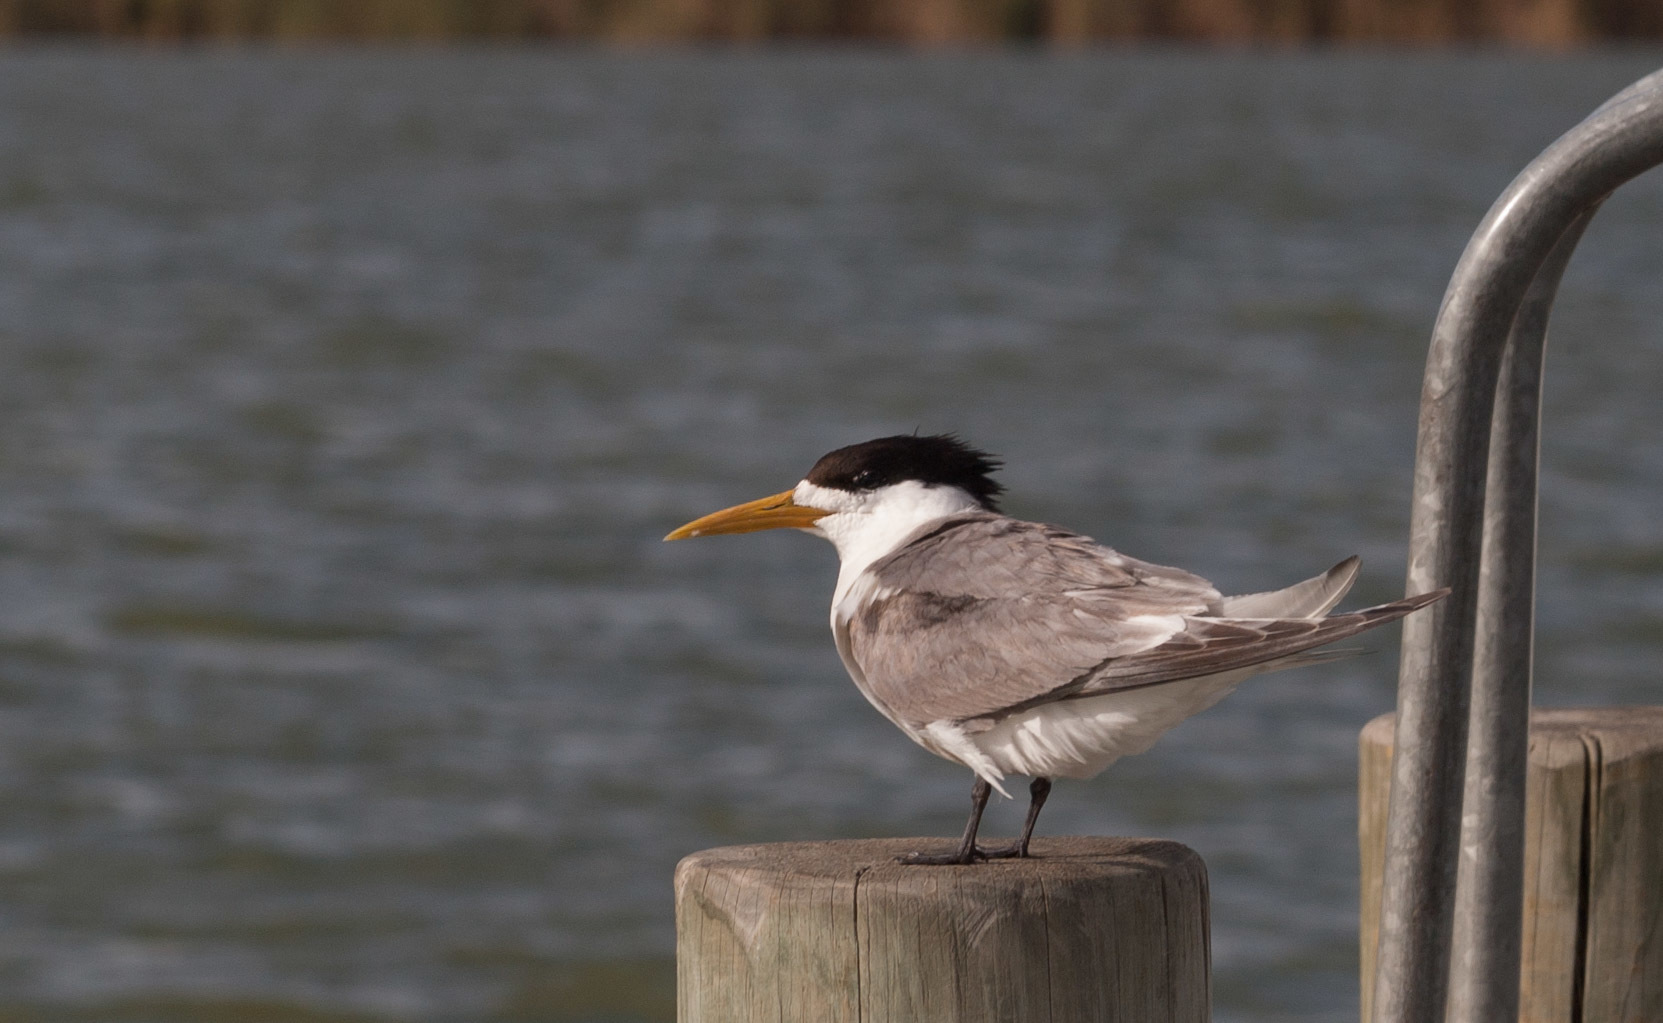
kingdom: Animalia
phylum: Chordata
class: Aves
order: Charadriiformes
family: Laridae
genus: Thalasseus
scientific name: Thalasseus bergii
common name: Greater crested tern
